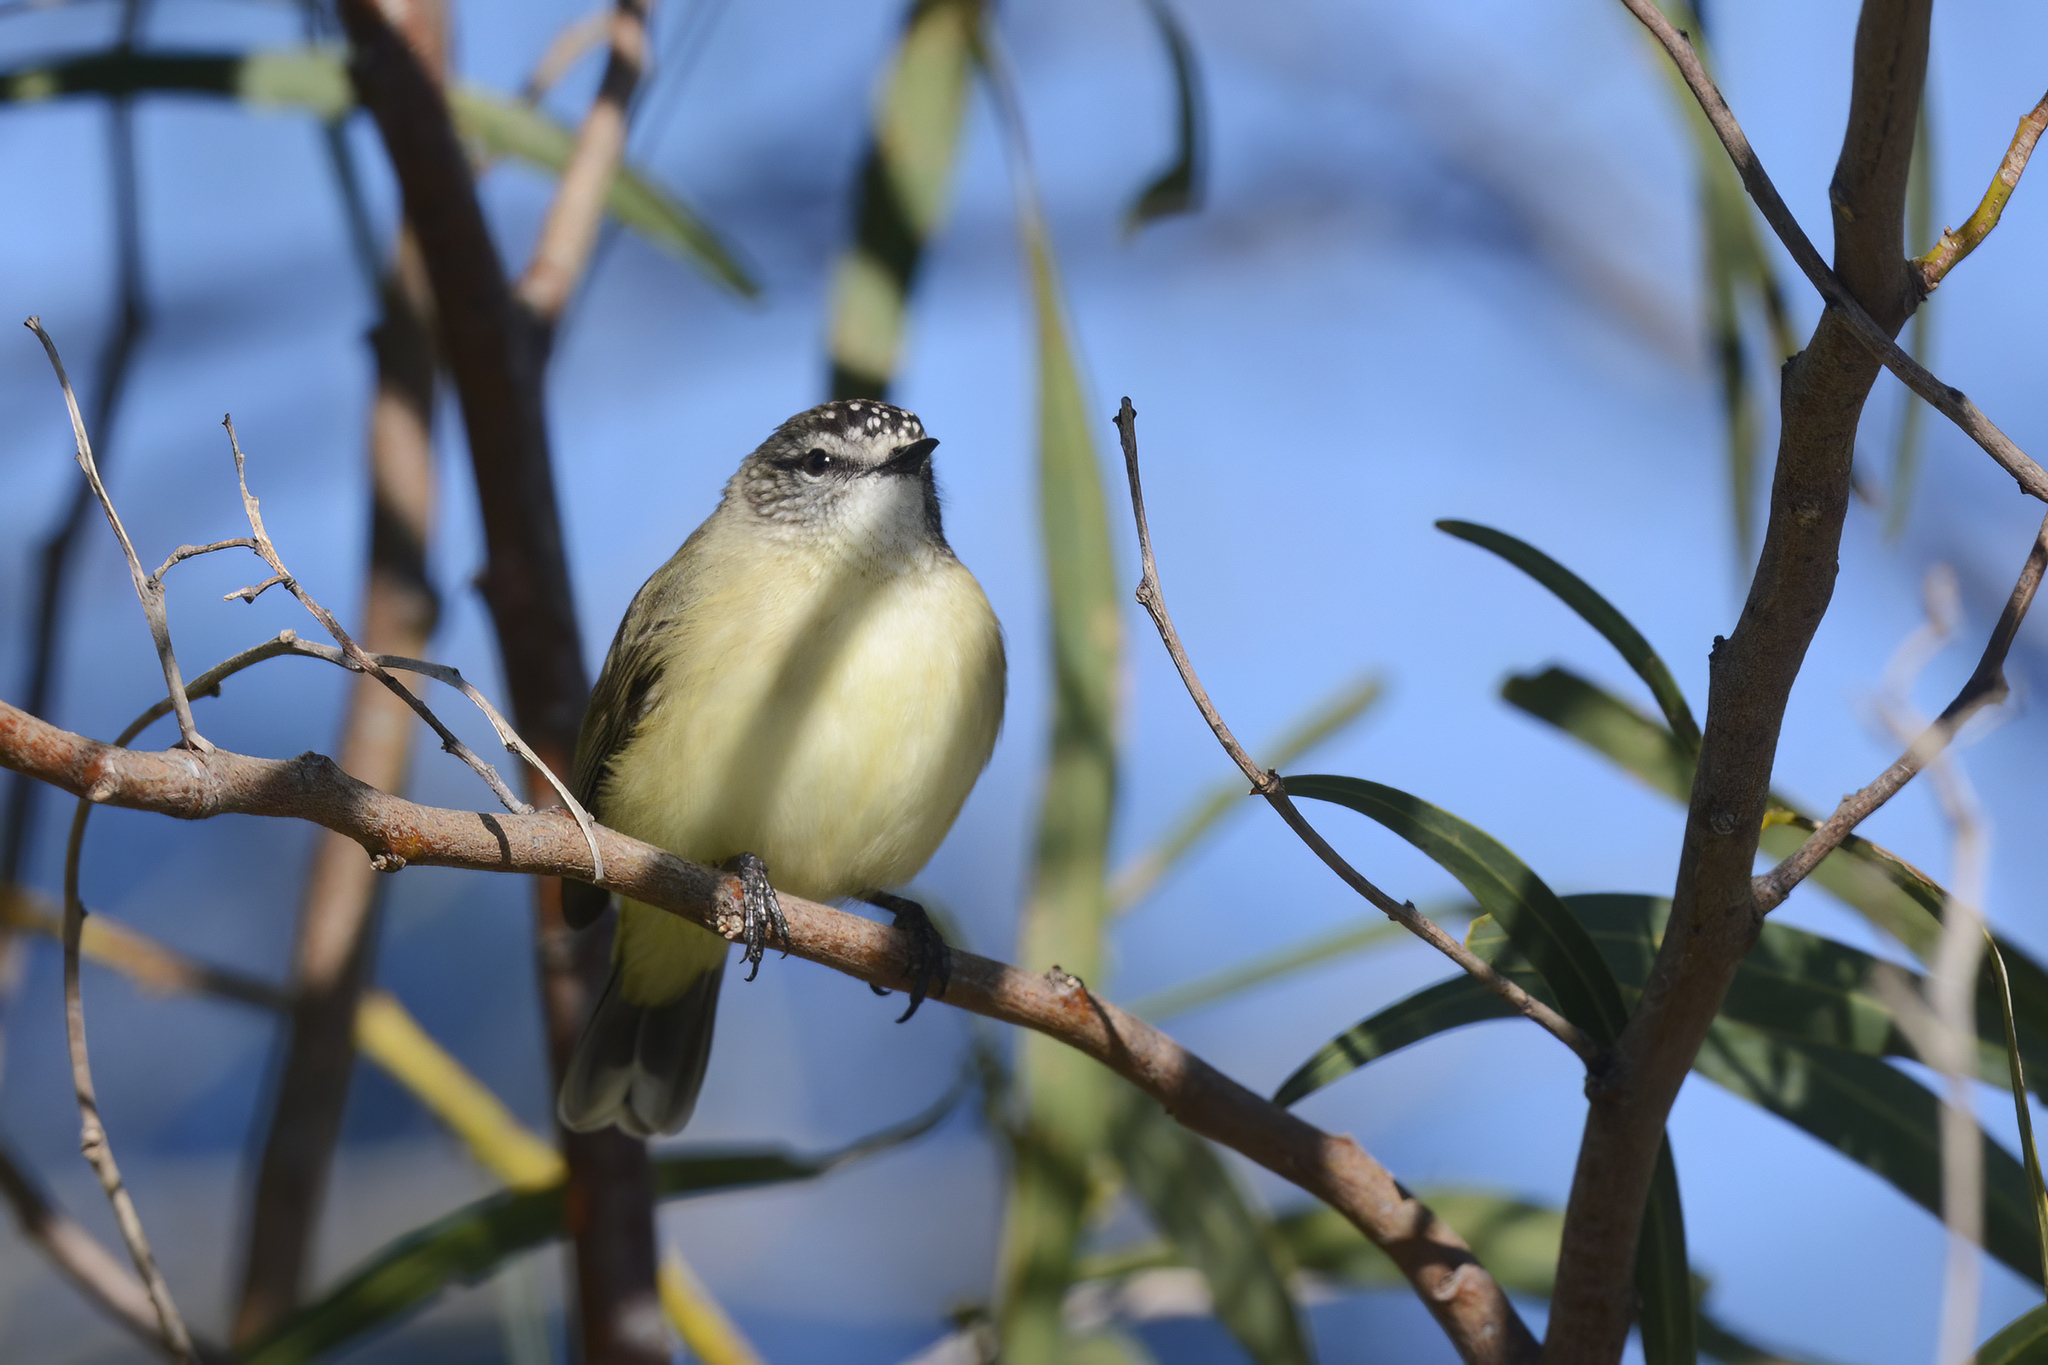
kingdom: Animalia
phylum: Chordata
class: Aves
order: Passeriformes
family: Acanthizidae
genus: Acanthiza
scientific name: Acanthiza chrysorrhoa
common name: Yellow-rumped thornbill
